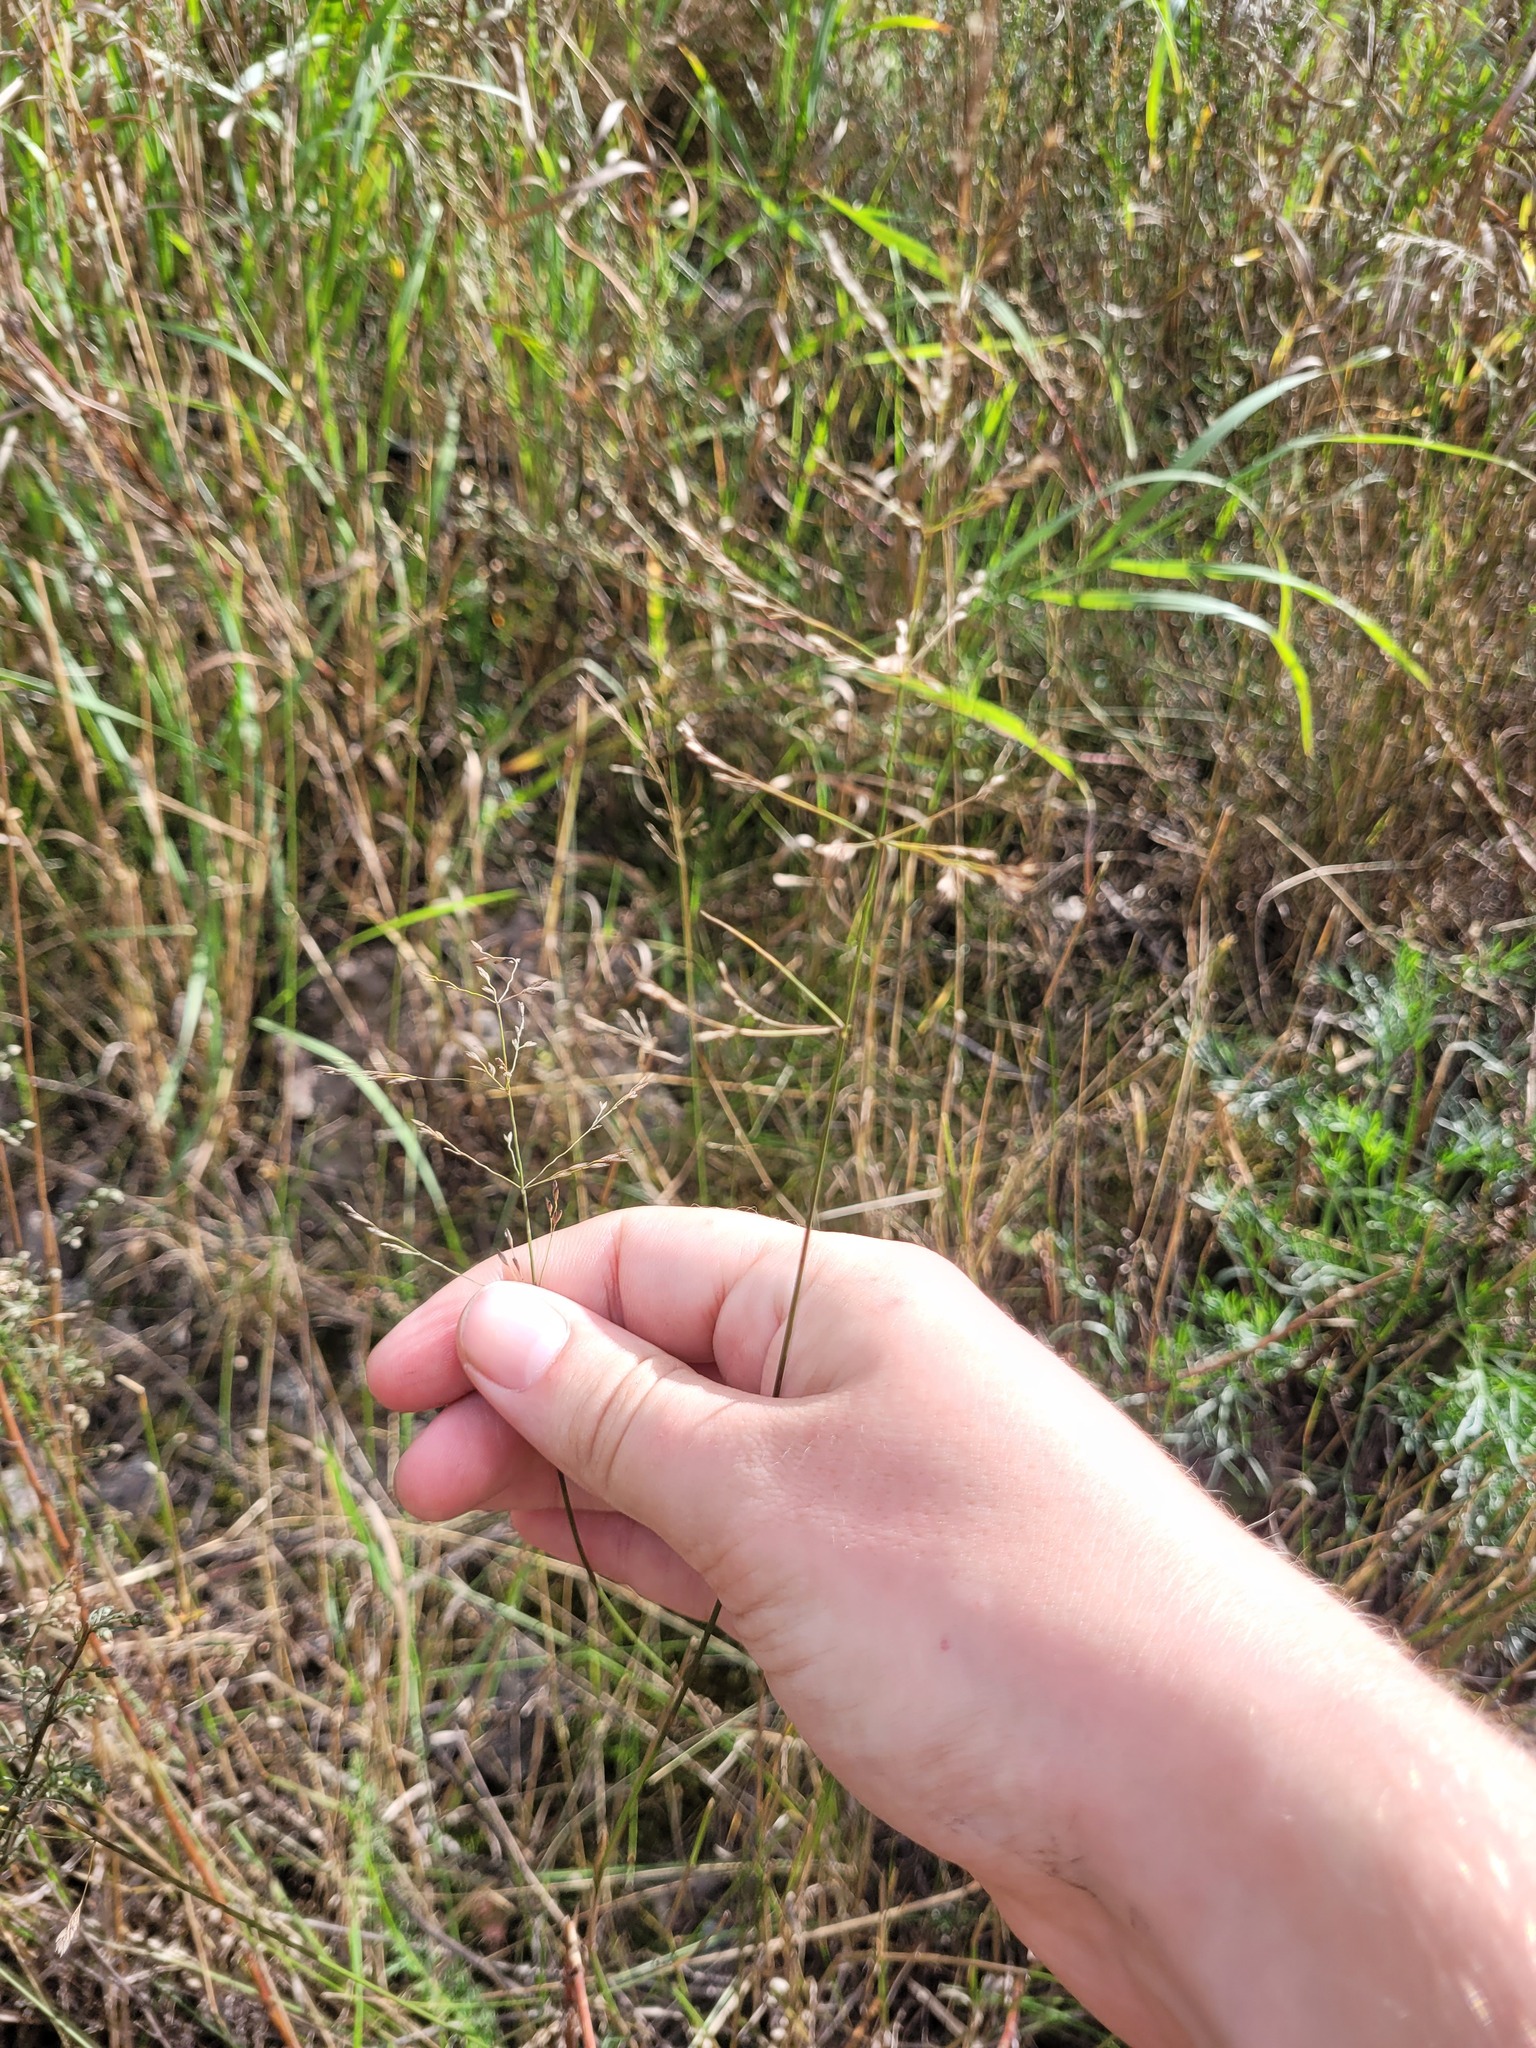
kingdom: Plantae
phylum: Tracheophyta
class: Liliopsida
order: Poales
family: Poaceae
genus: Poa
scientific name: Poa palustris
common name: Swamp meadow-grass
